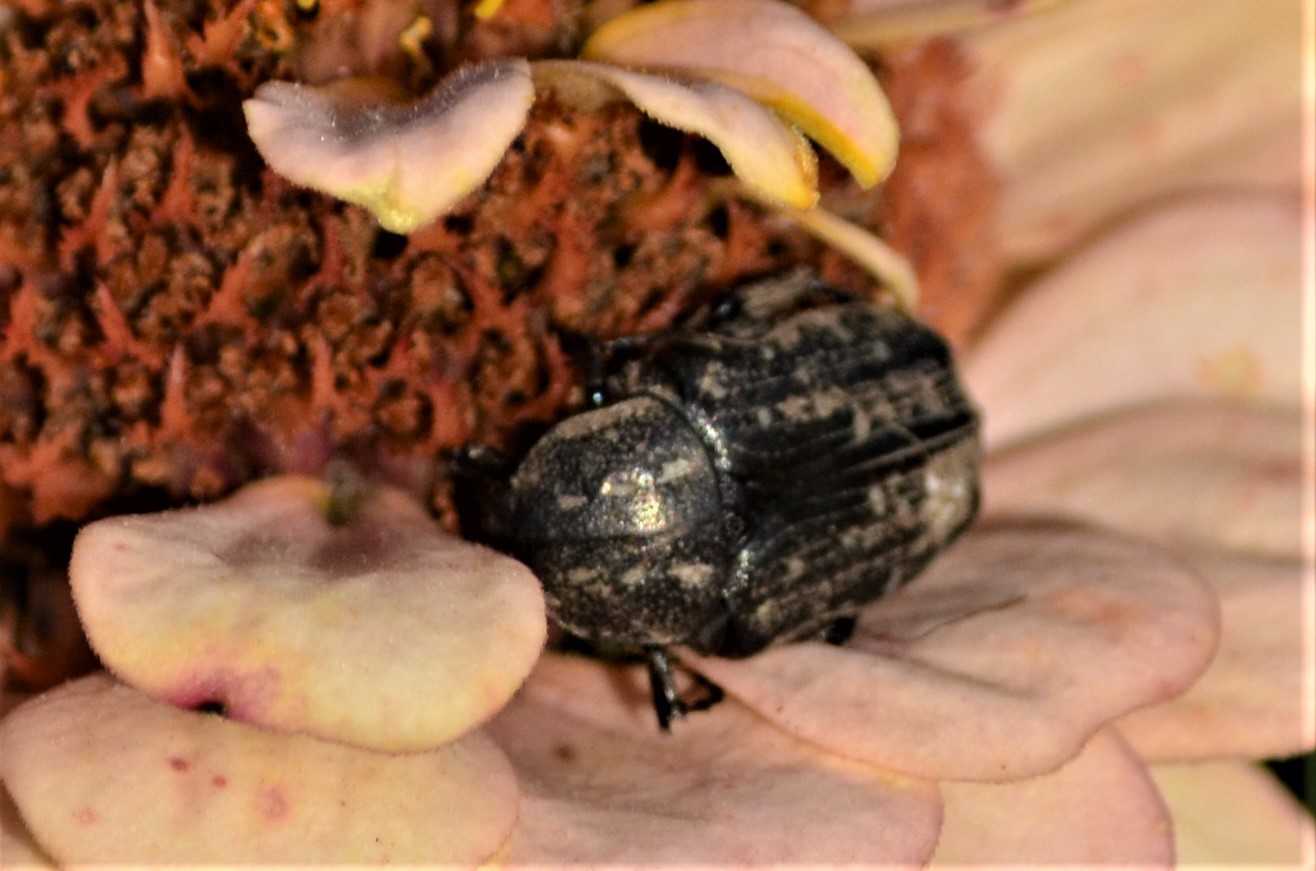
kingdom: Animalia
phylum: Arthropoda
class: Insecta
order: Coleoptera
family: Scarabaeidae
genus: Oxythyrea
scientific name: Oxythyrea funesta
